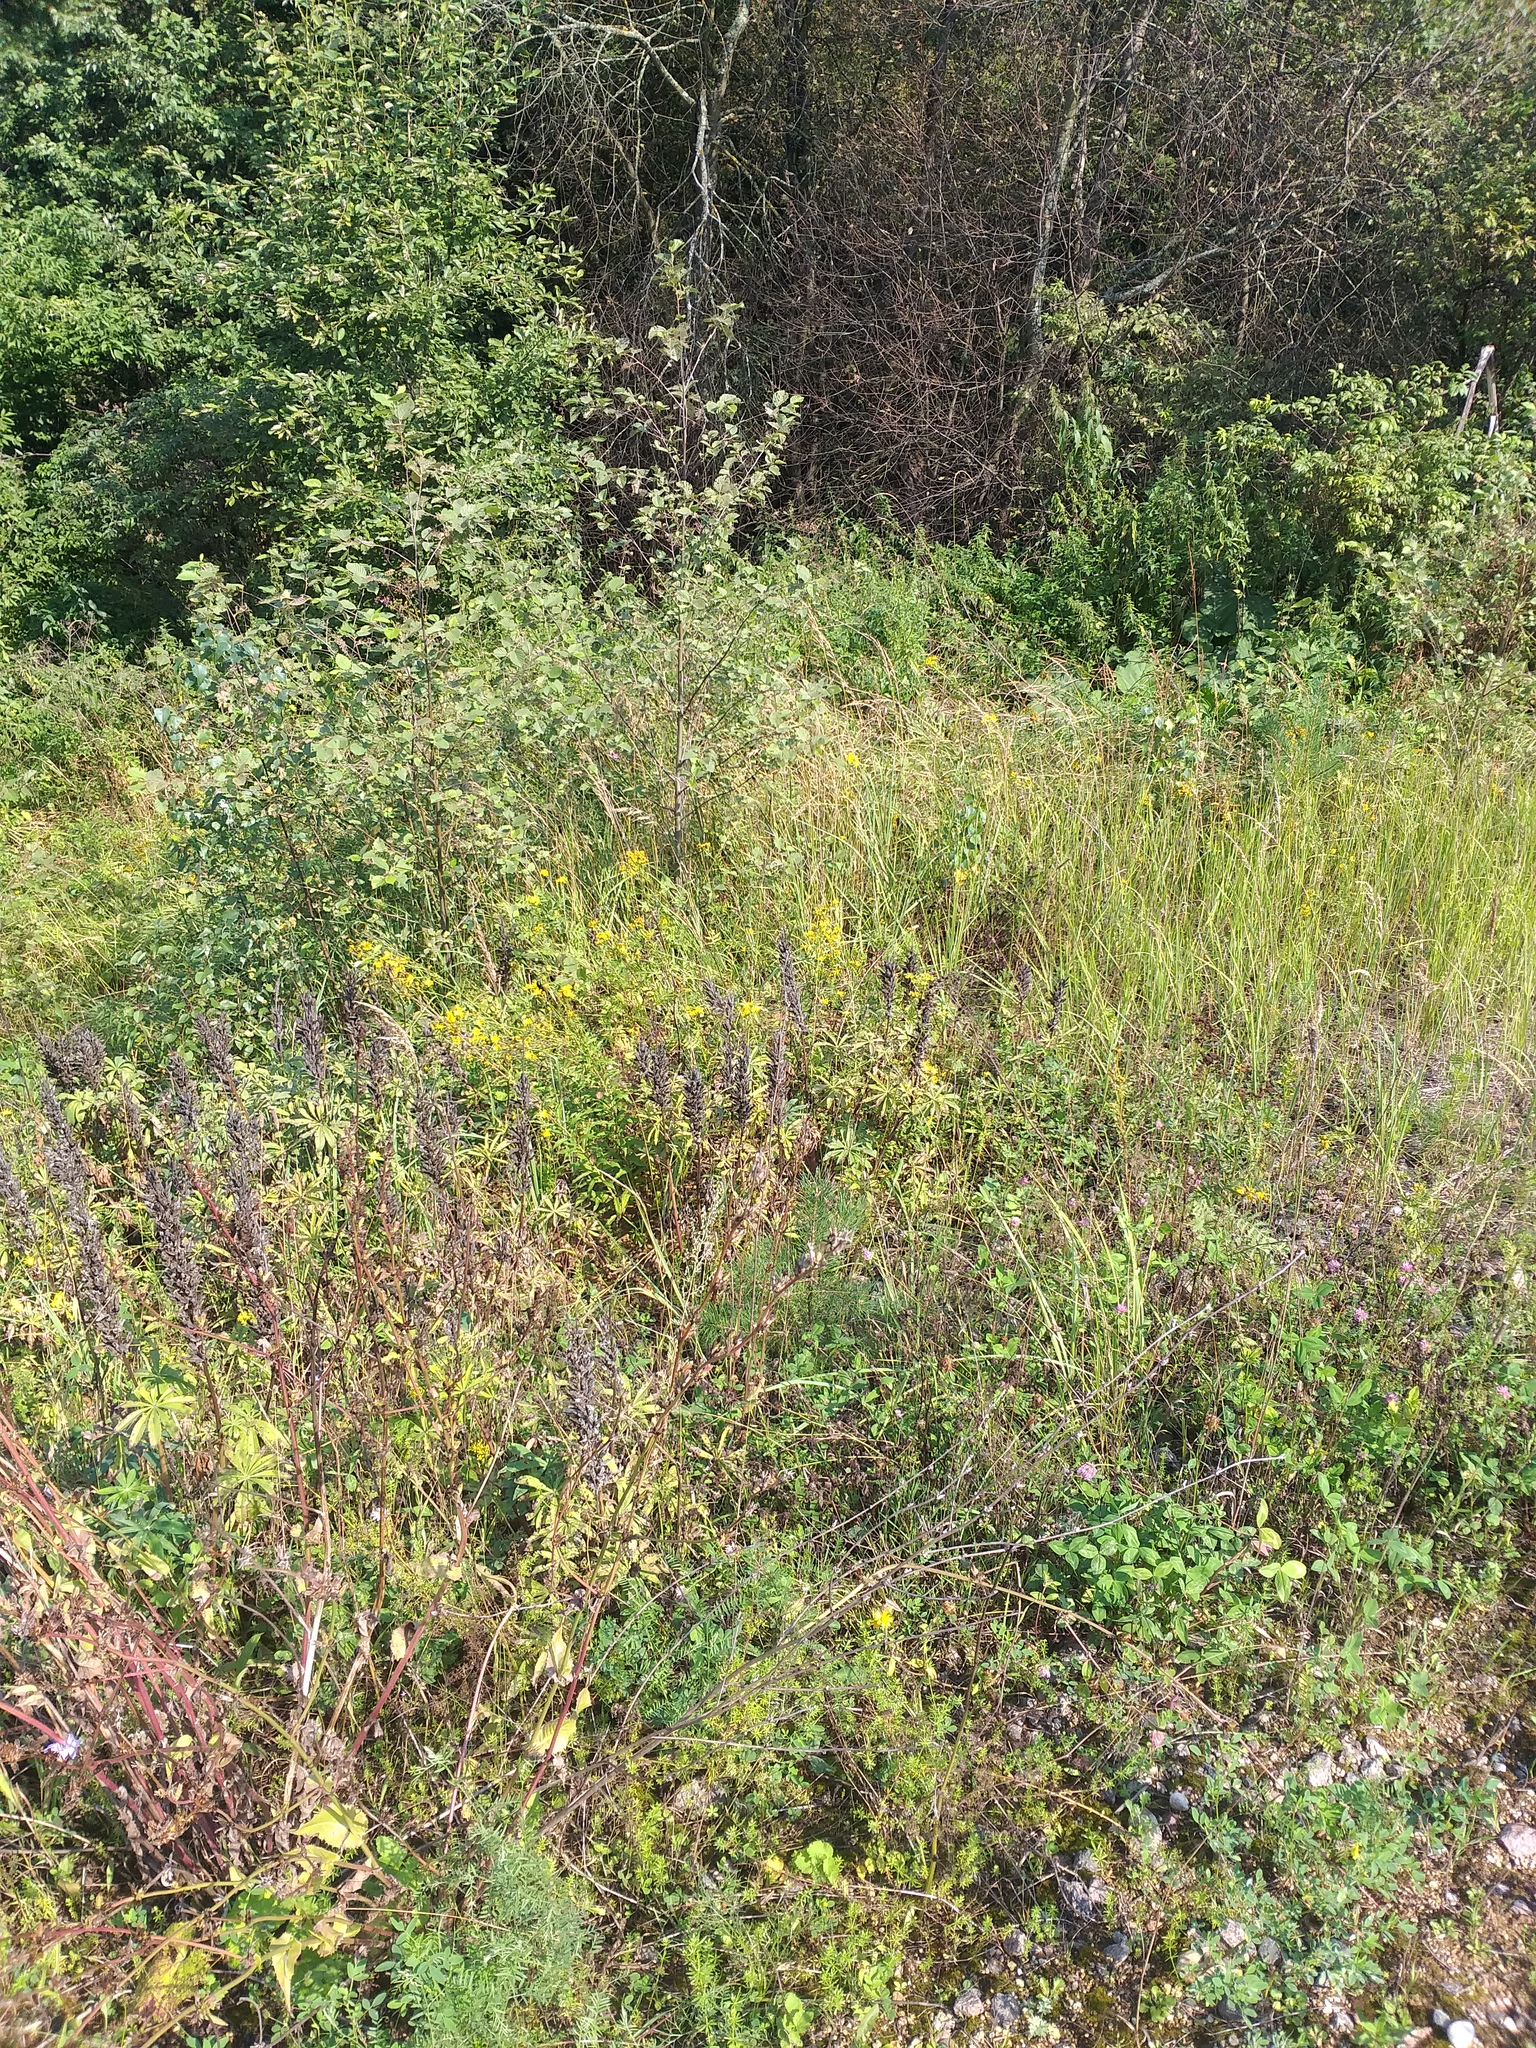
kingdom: Plantae
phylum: Tracheophyta
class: Magnoliopsida
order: Fabales
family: Fabaceae
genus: Lupinus
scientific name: Lupinus polyphyllus
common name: Garden lupin
